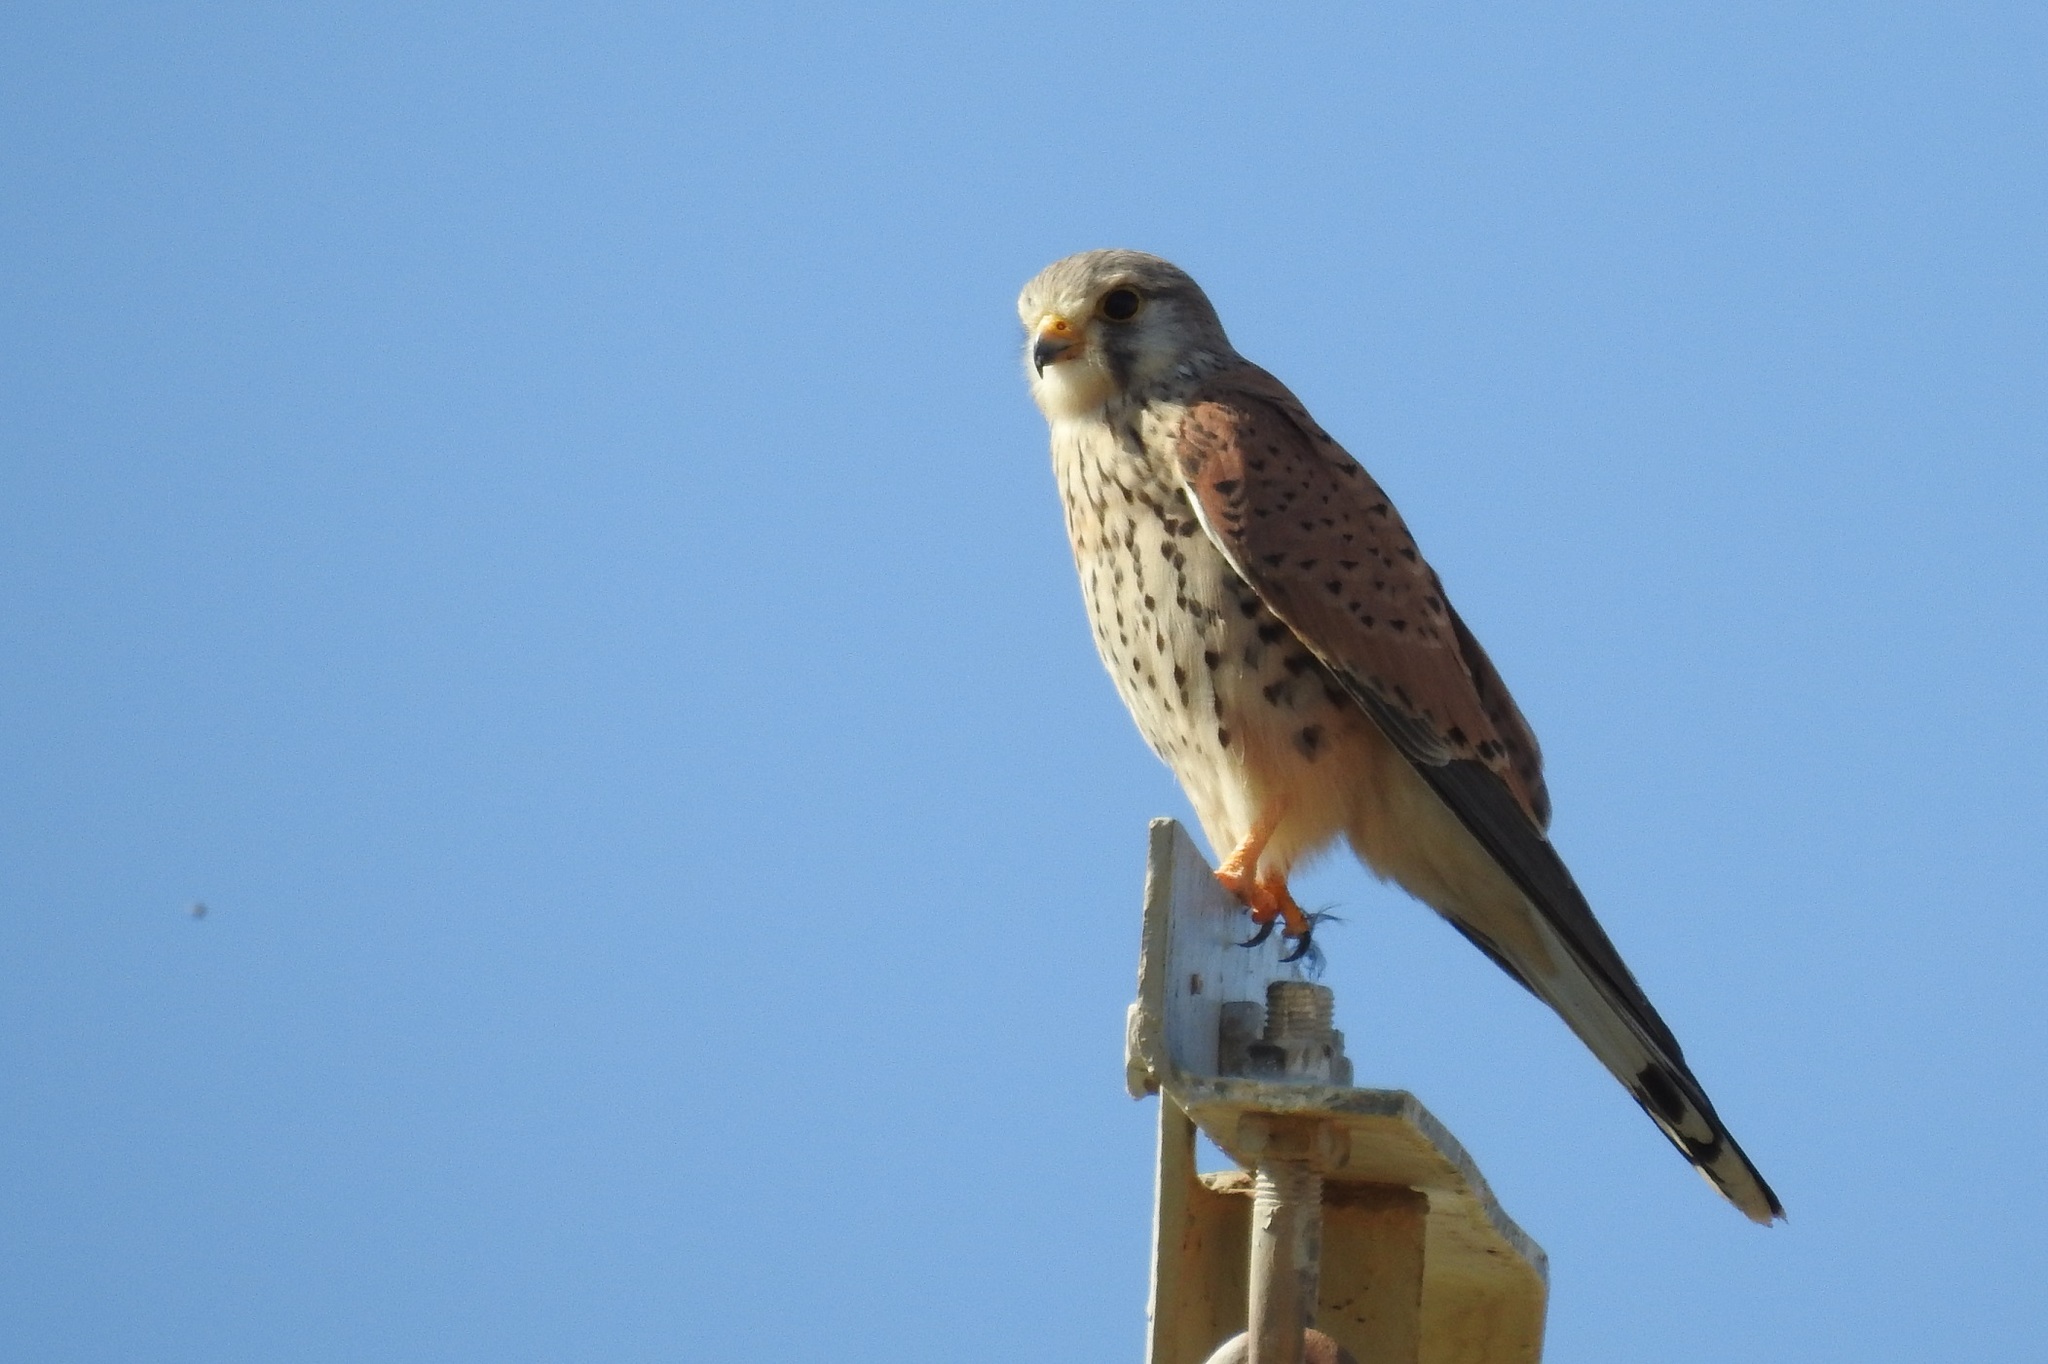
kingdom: Animalia
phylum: Chordata
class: Aves
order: Falconiformes
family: Falconidae
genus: Falco
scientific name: Falco tinnunculus
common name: Common kestrel
